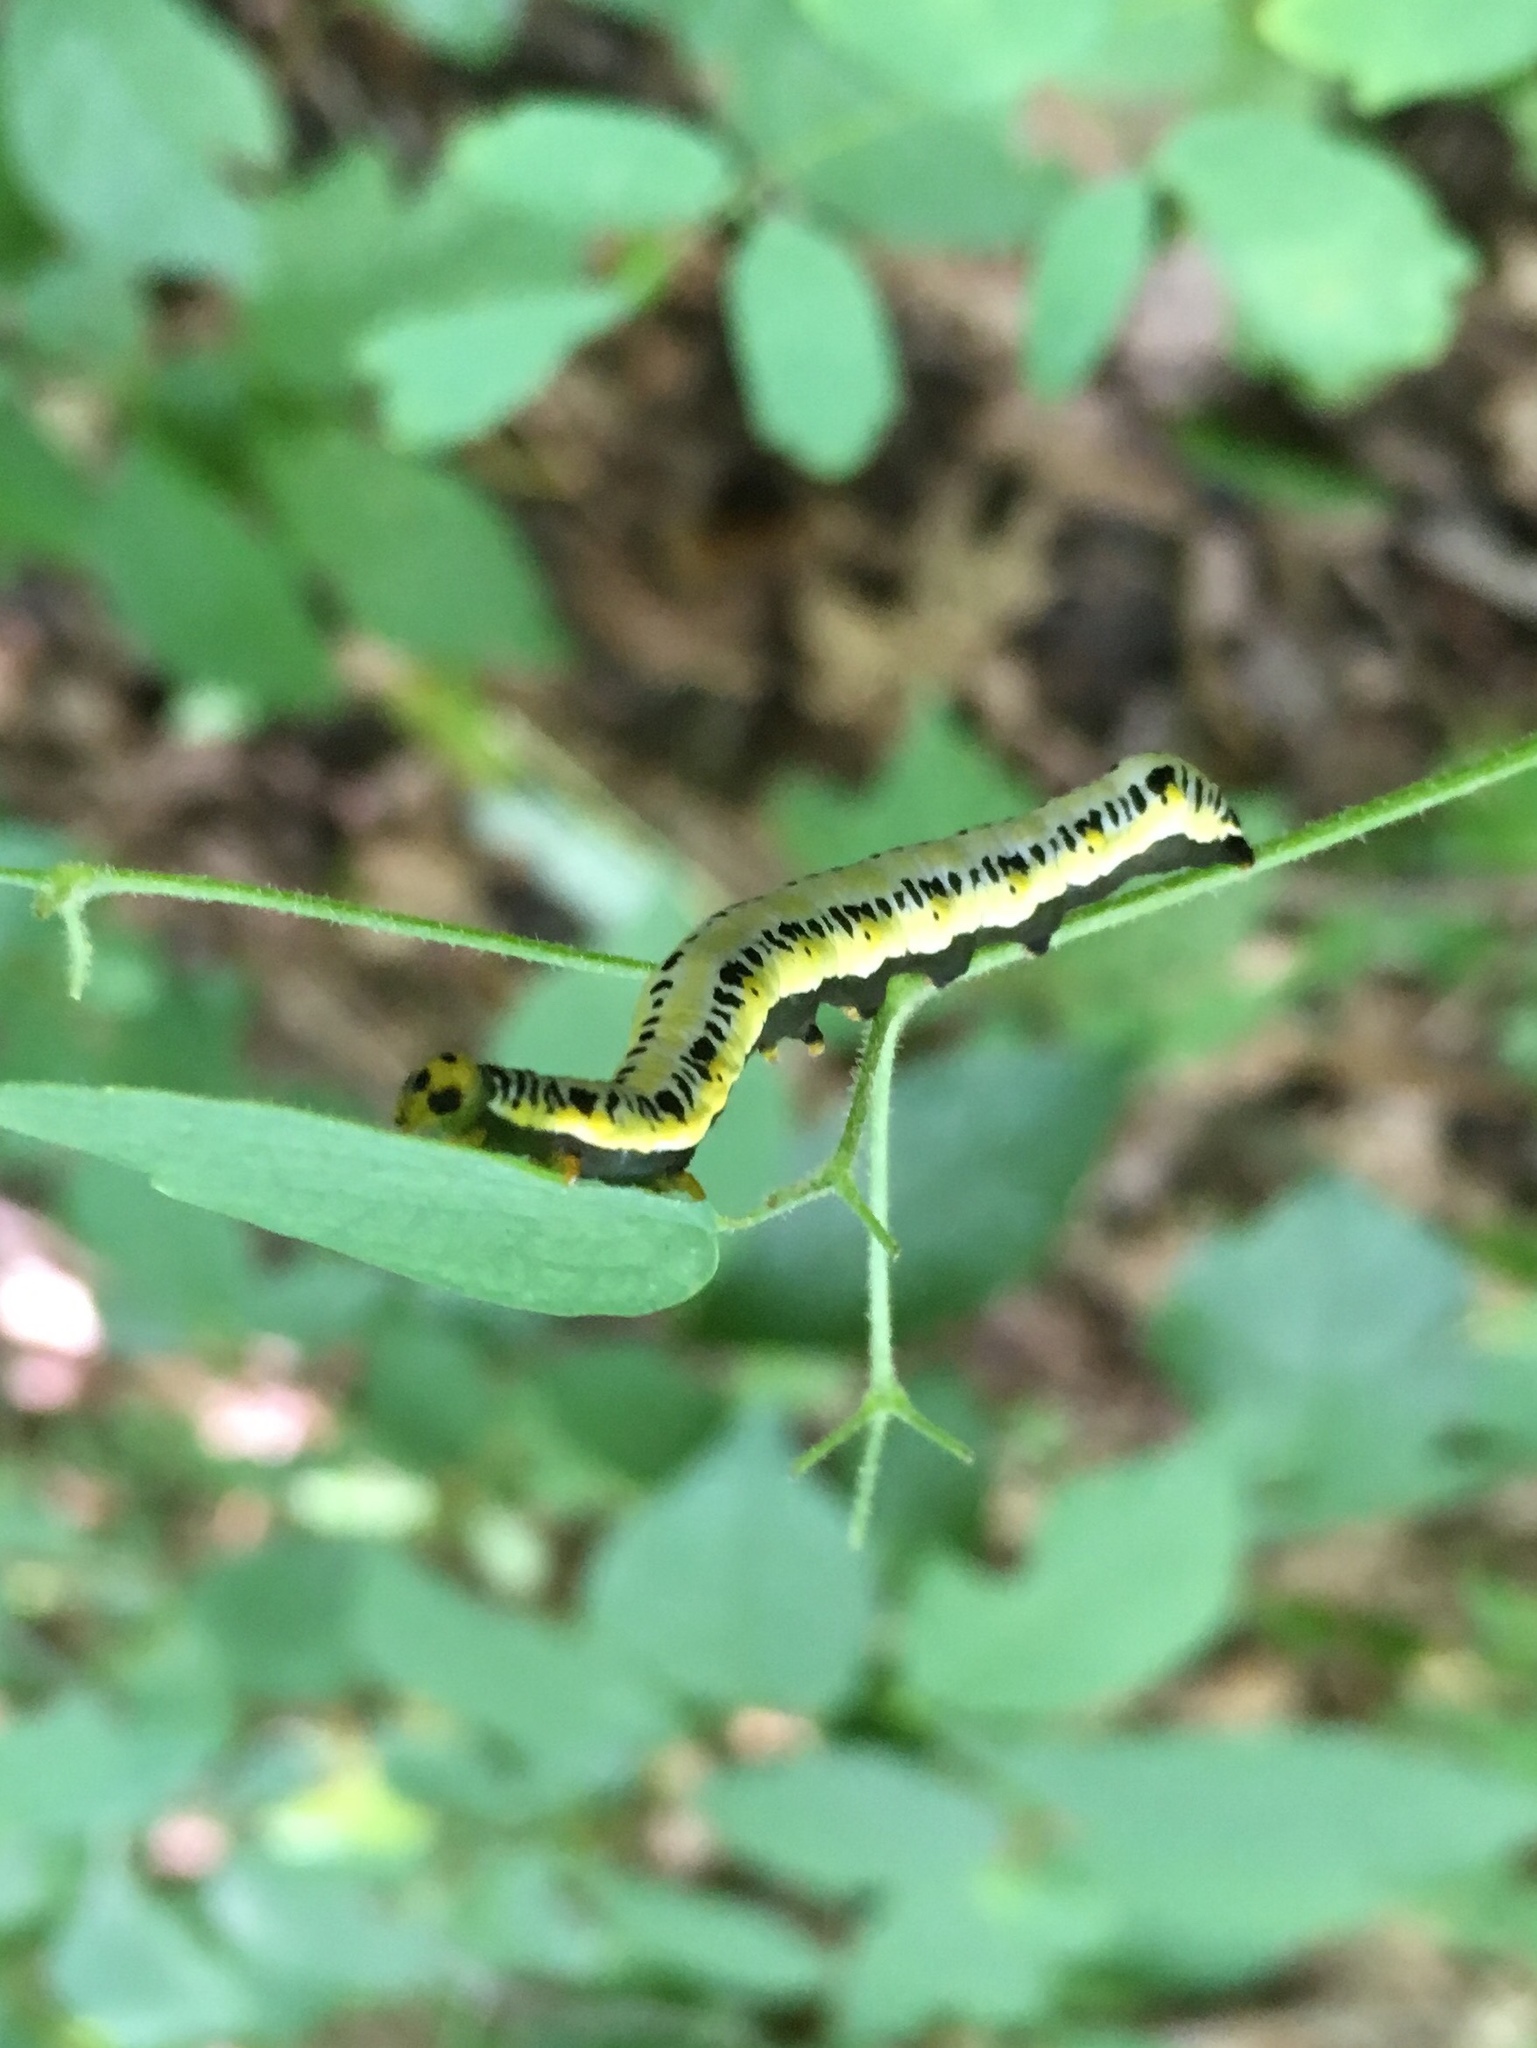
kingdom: Animalia
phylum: Arthropoda
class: Insecta
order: Lepidoptera
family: Erebidae
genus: Calyptra
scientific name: Calyptra canadensis
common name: Canadian owlet
